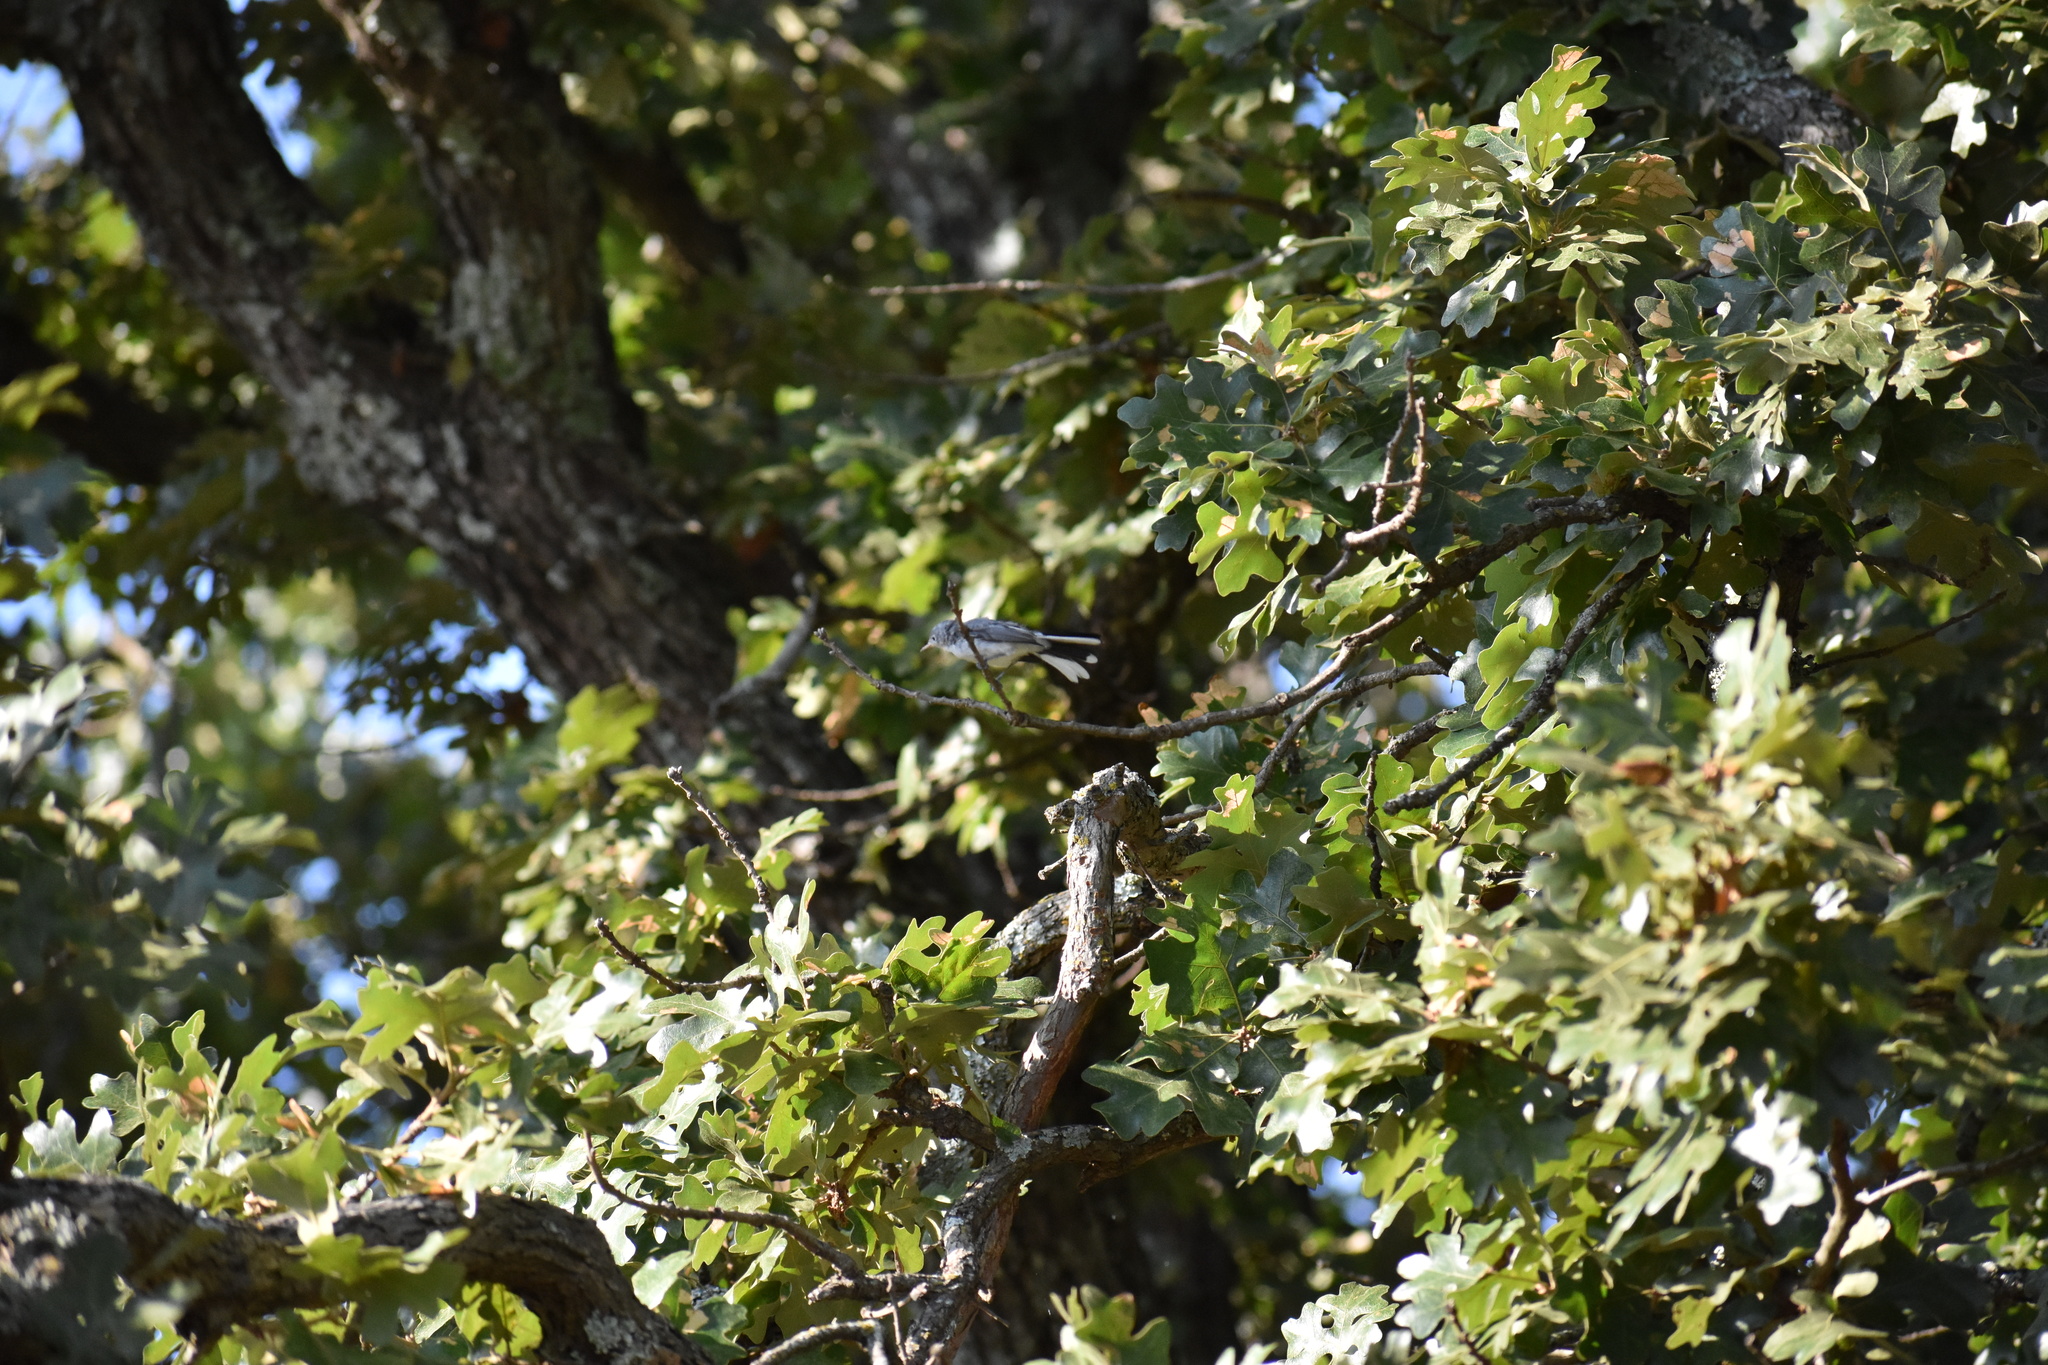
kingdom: Animalia
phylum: Chordata
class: Aves
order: Passeriformes
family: Polioptilidae
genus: Polioptila
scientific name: Polioptila caerulea
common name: Blue-gray gnatcatcher
